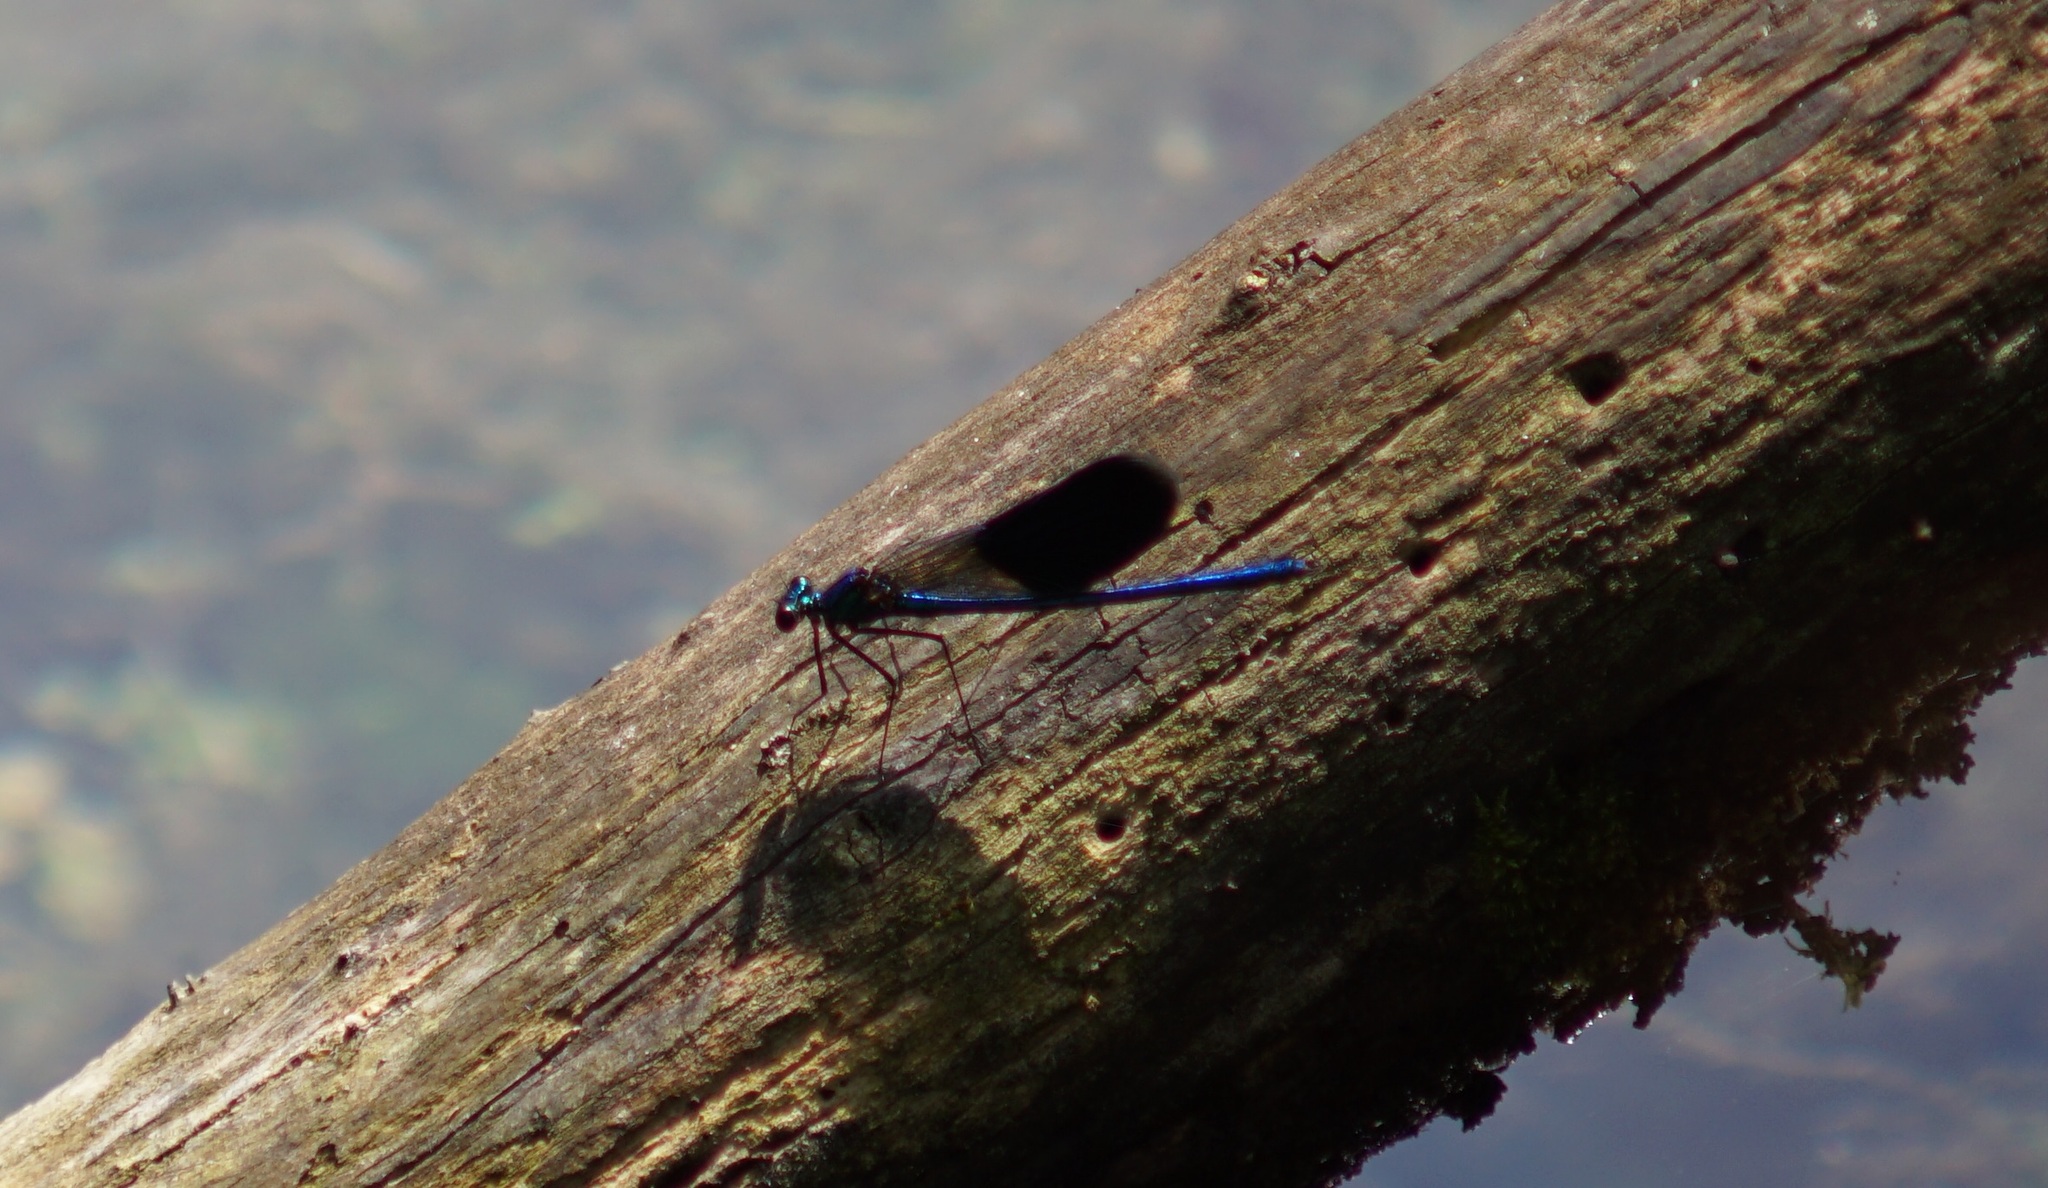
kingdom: Animalia
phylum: Arthropoda
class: Insecta
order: Odonata
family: Calopterygidae
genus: Calopteryx
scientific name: Calopteryx splendens
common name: Banded demoiselle
